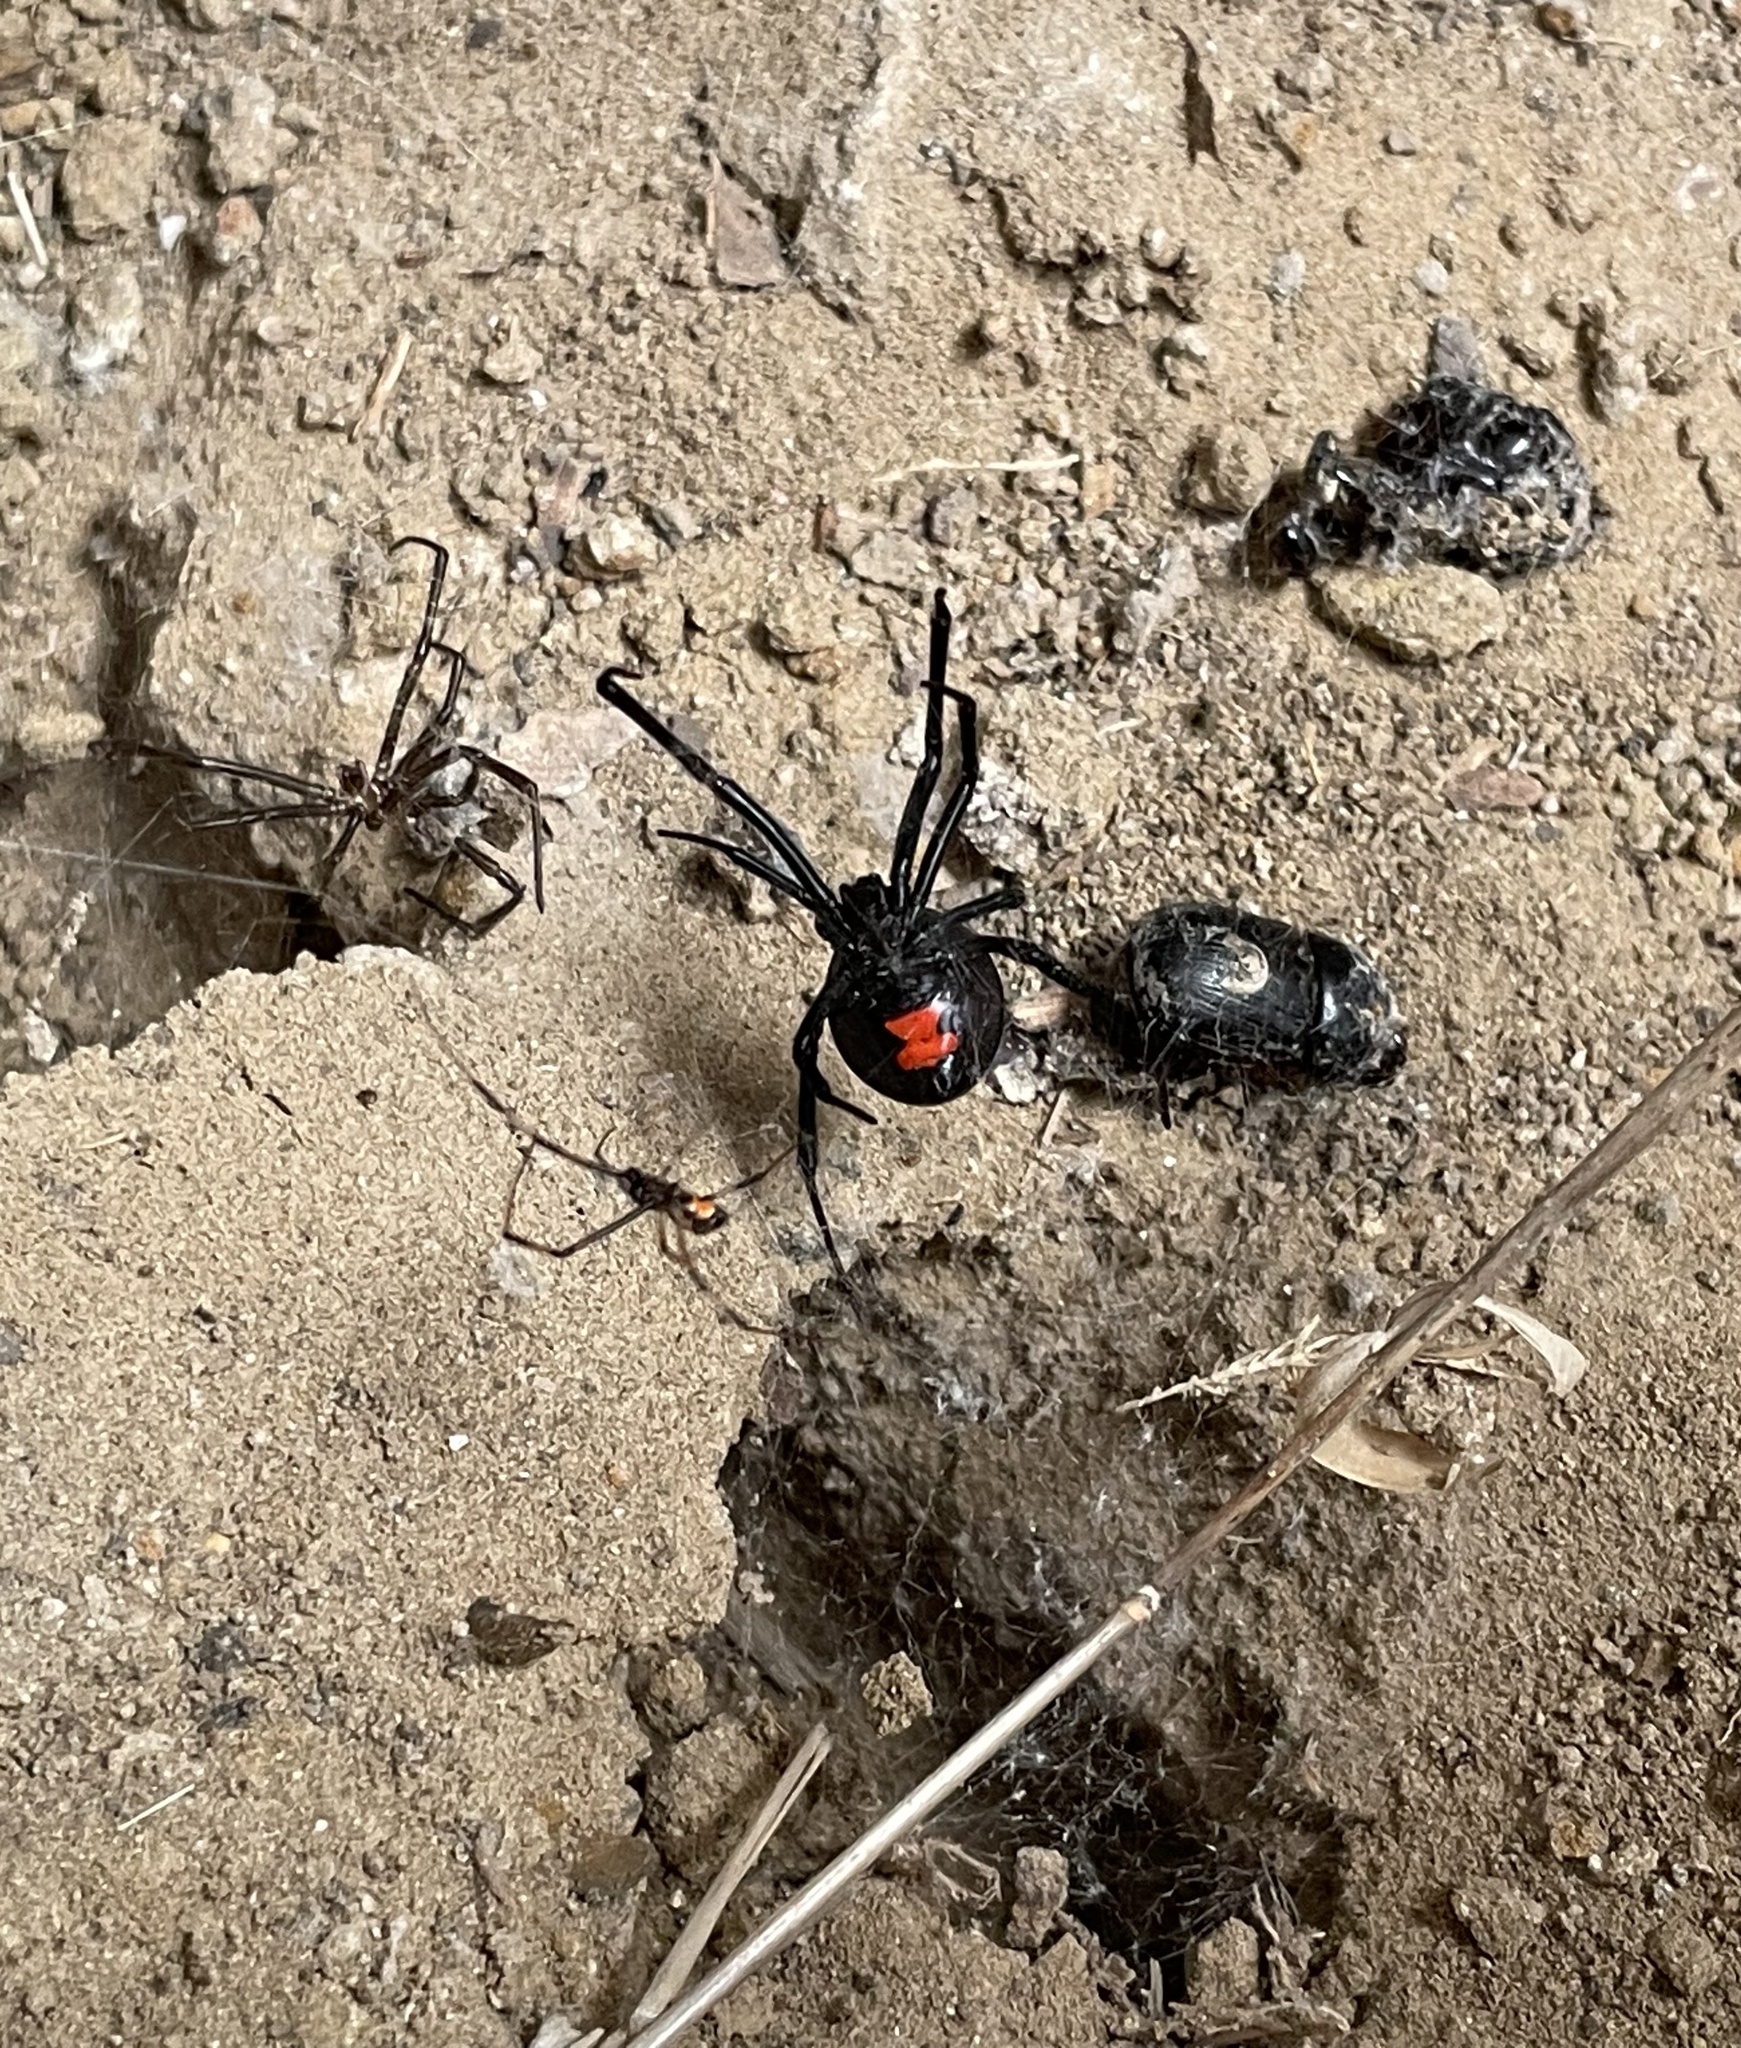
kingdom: Animalia
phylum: Arthropoda
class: Arachnida
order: Araneae
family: Theridiidae
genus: Latrodectus
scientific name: Latrodectus mactans
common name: Cobweb spiders
